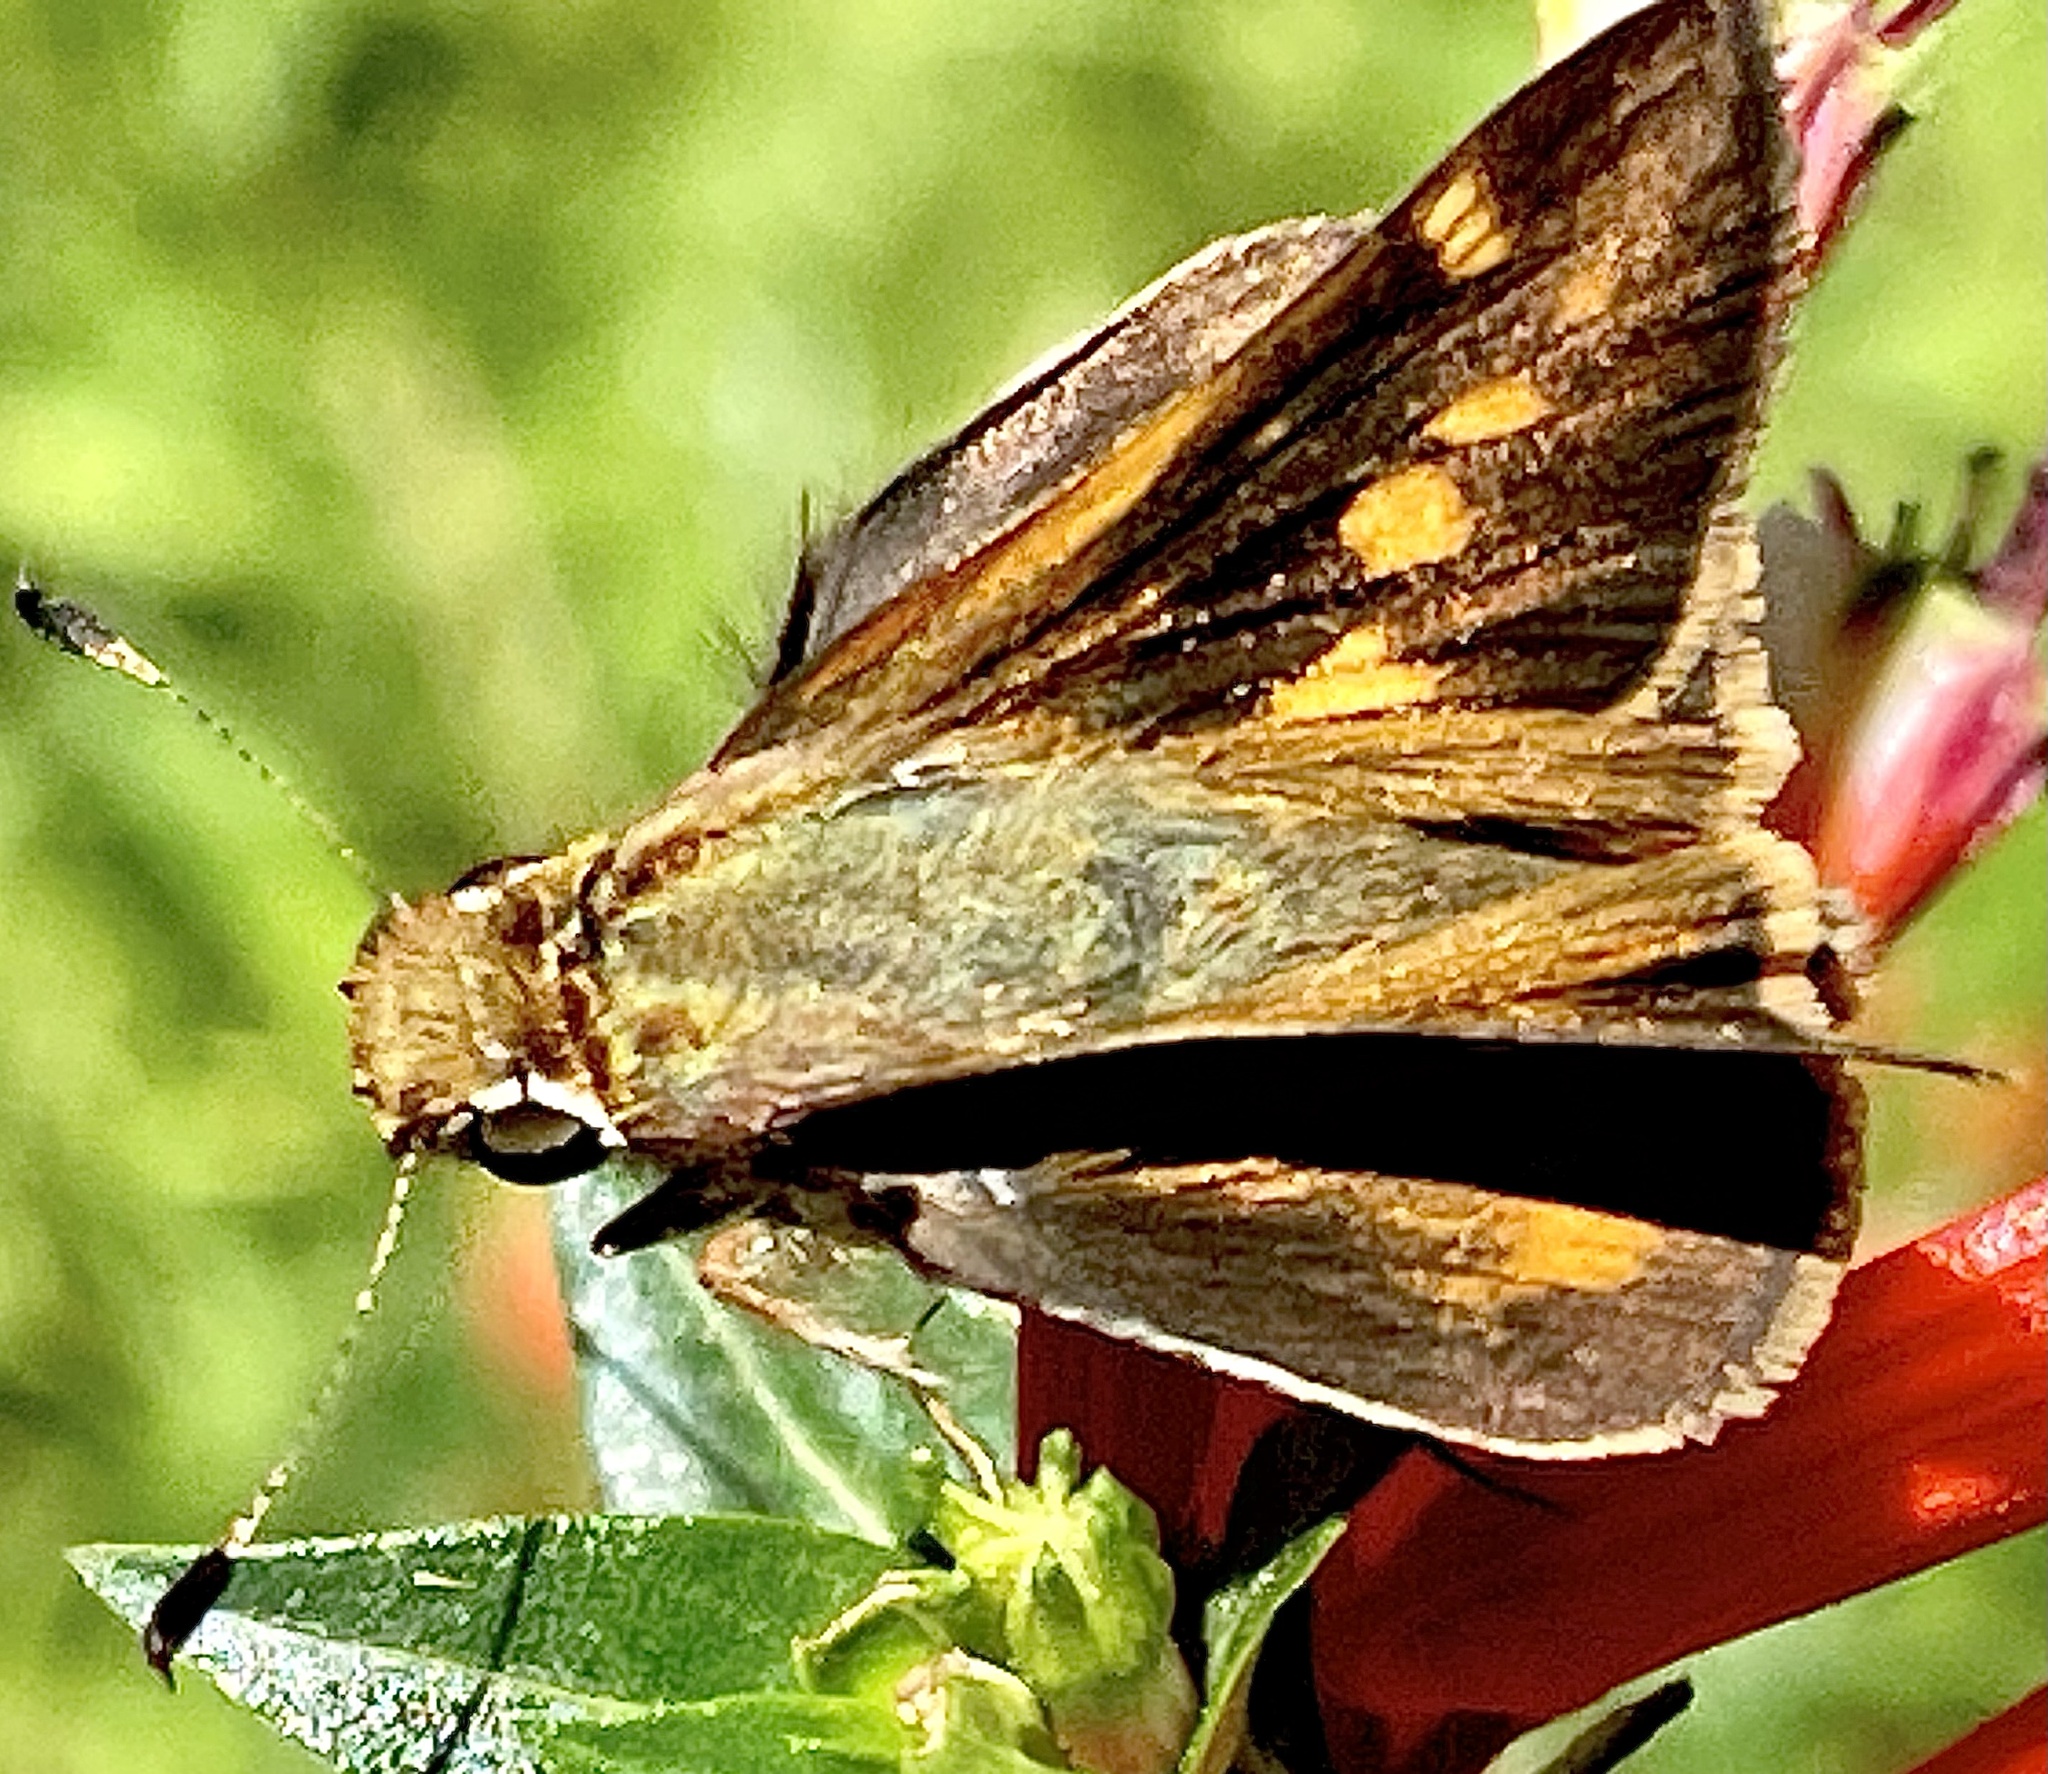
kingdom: Animalia
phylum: Arthropoda
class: Insecta
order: Lepidoptera
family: Hesperiidae
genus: Lon
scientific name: Lon melane
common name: Umber skipper
